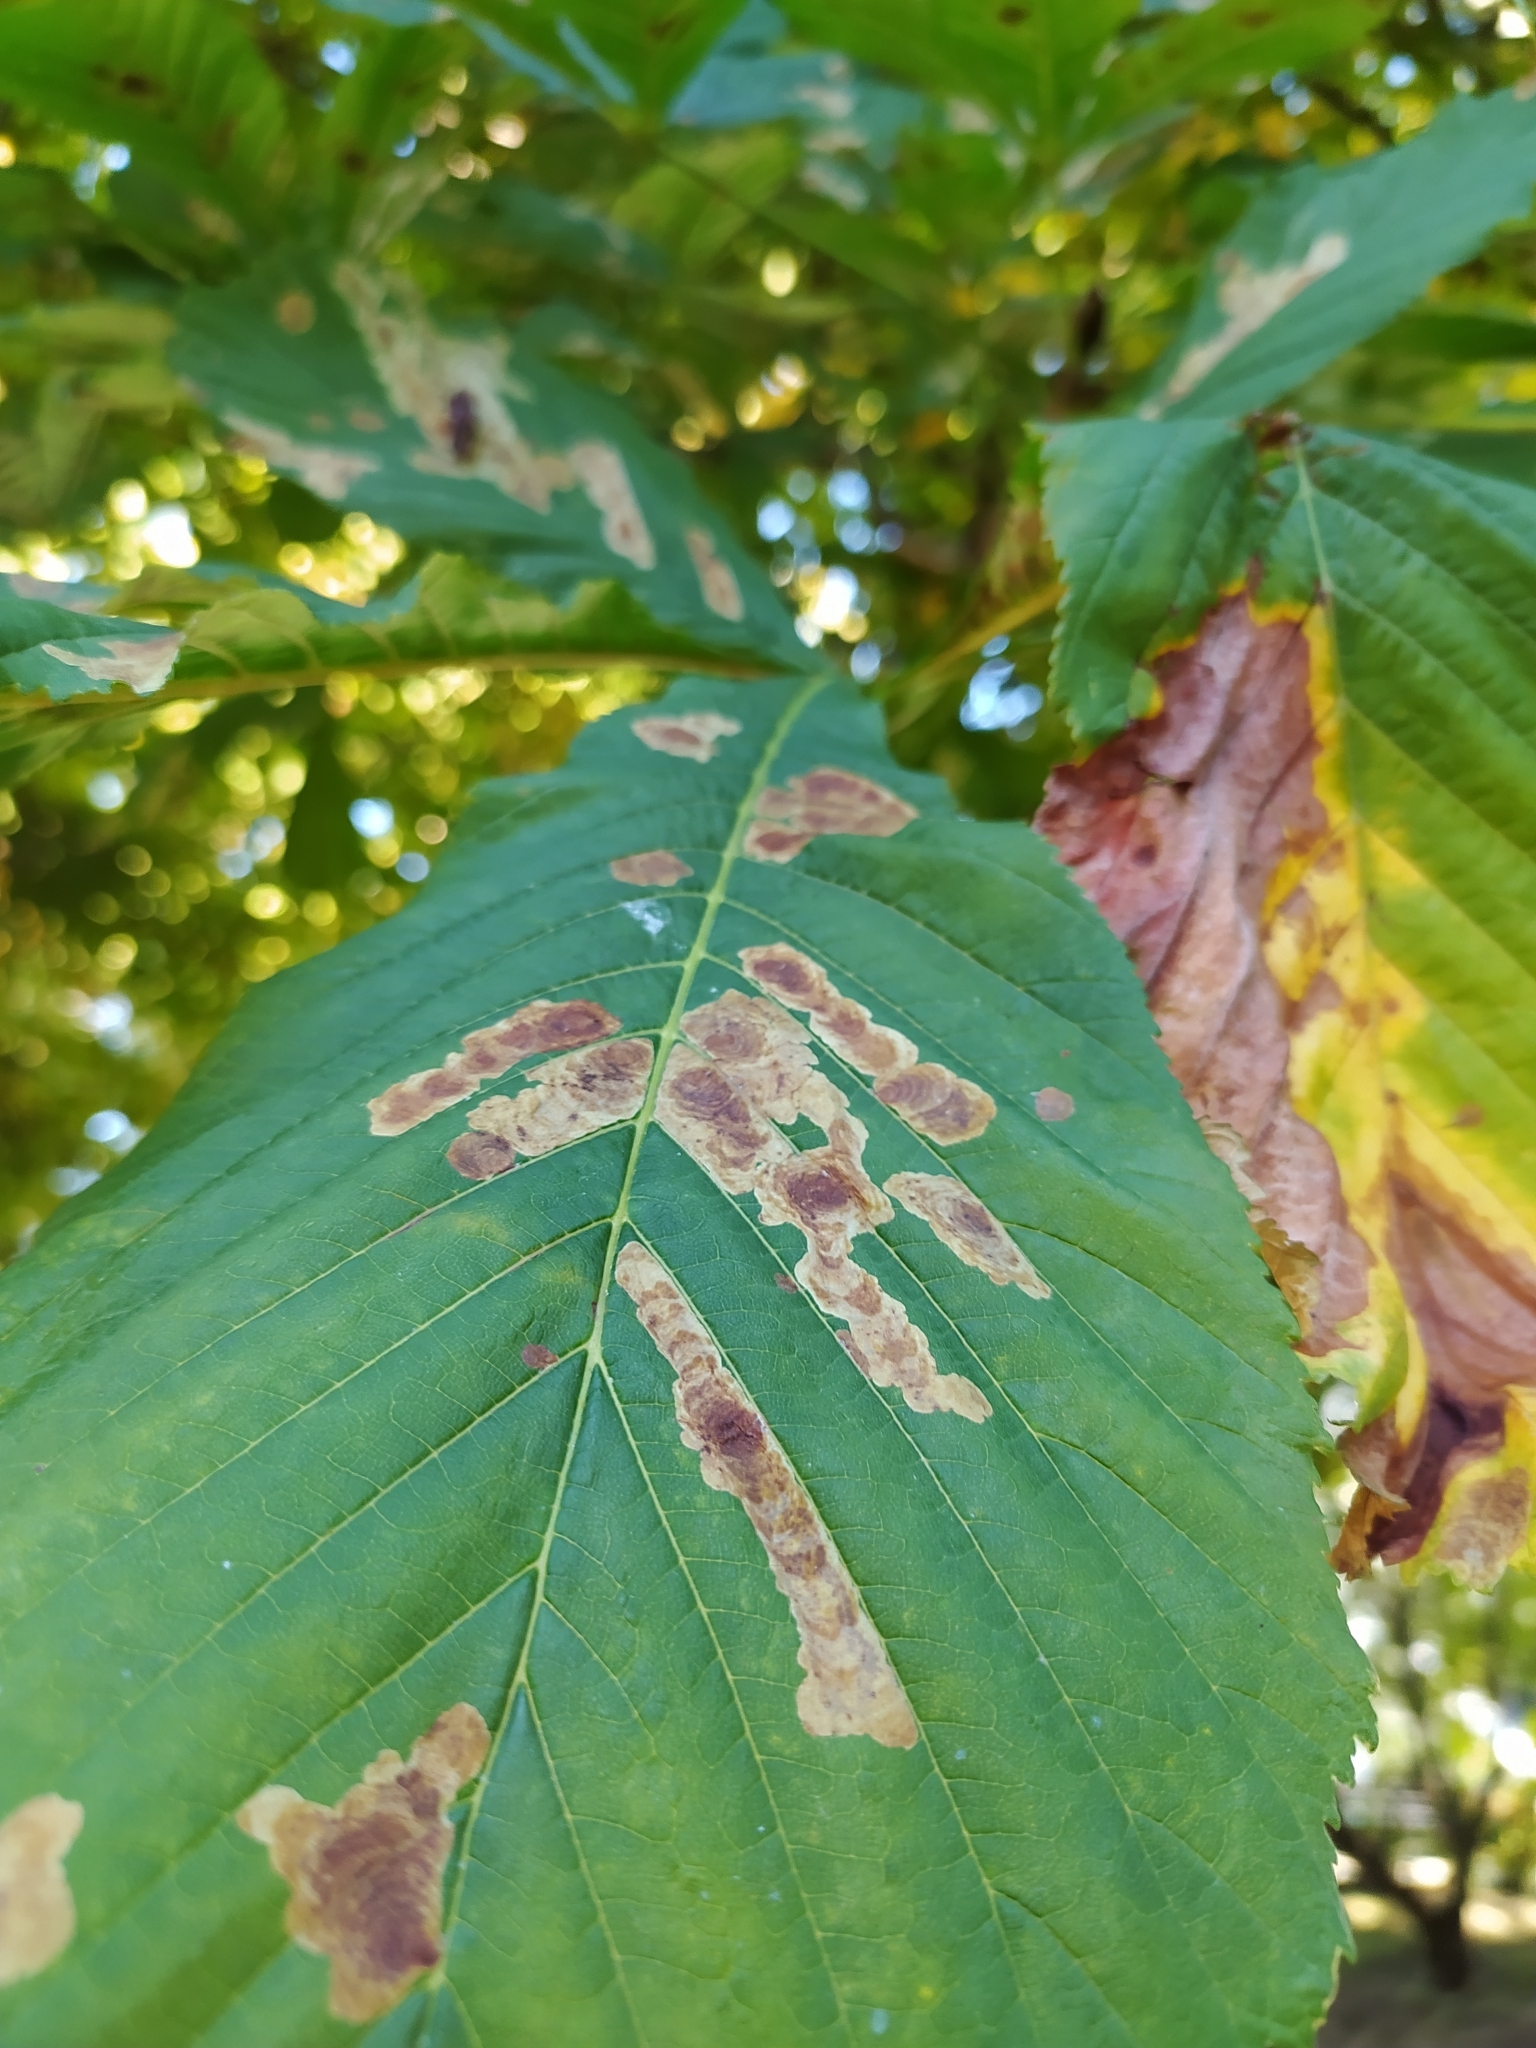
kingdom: Animalia
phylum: Arthropoda
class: Insecta
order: Lepidoptera
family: Gracillariidae
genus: Cameraria
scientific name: Cameraria ohridella
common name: Horse-chestnut leaf-miner
